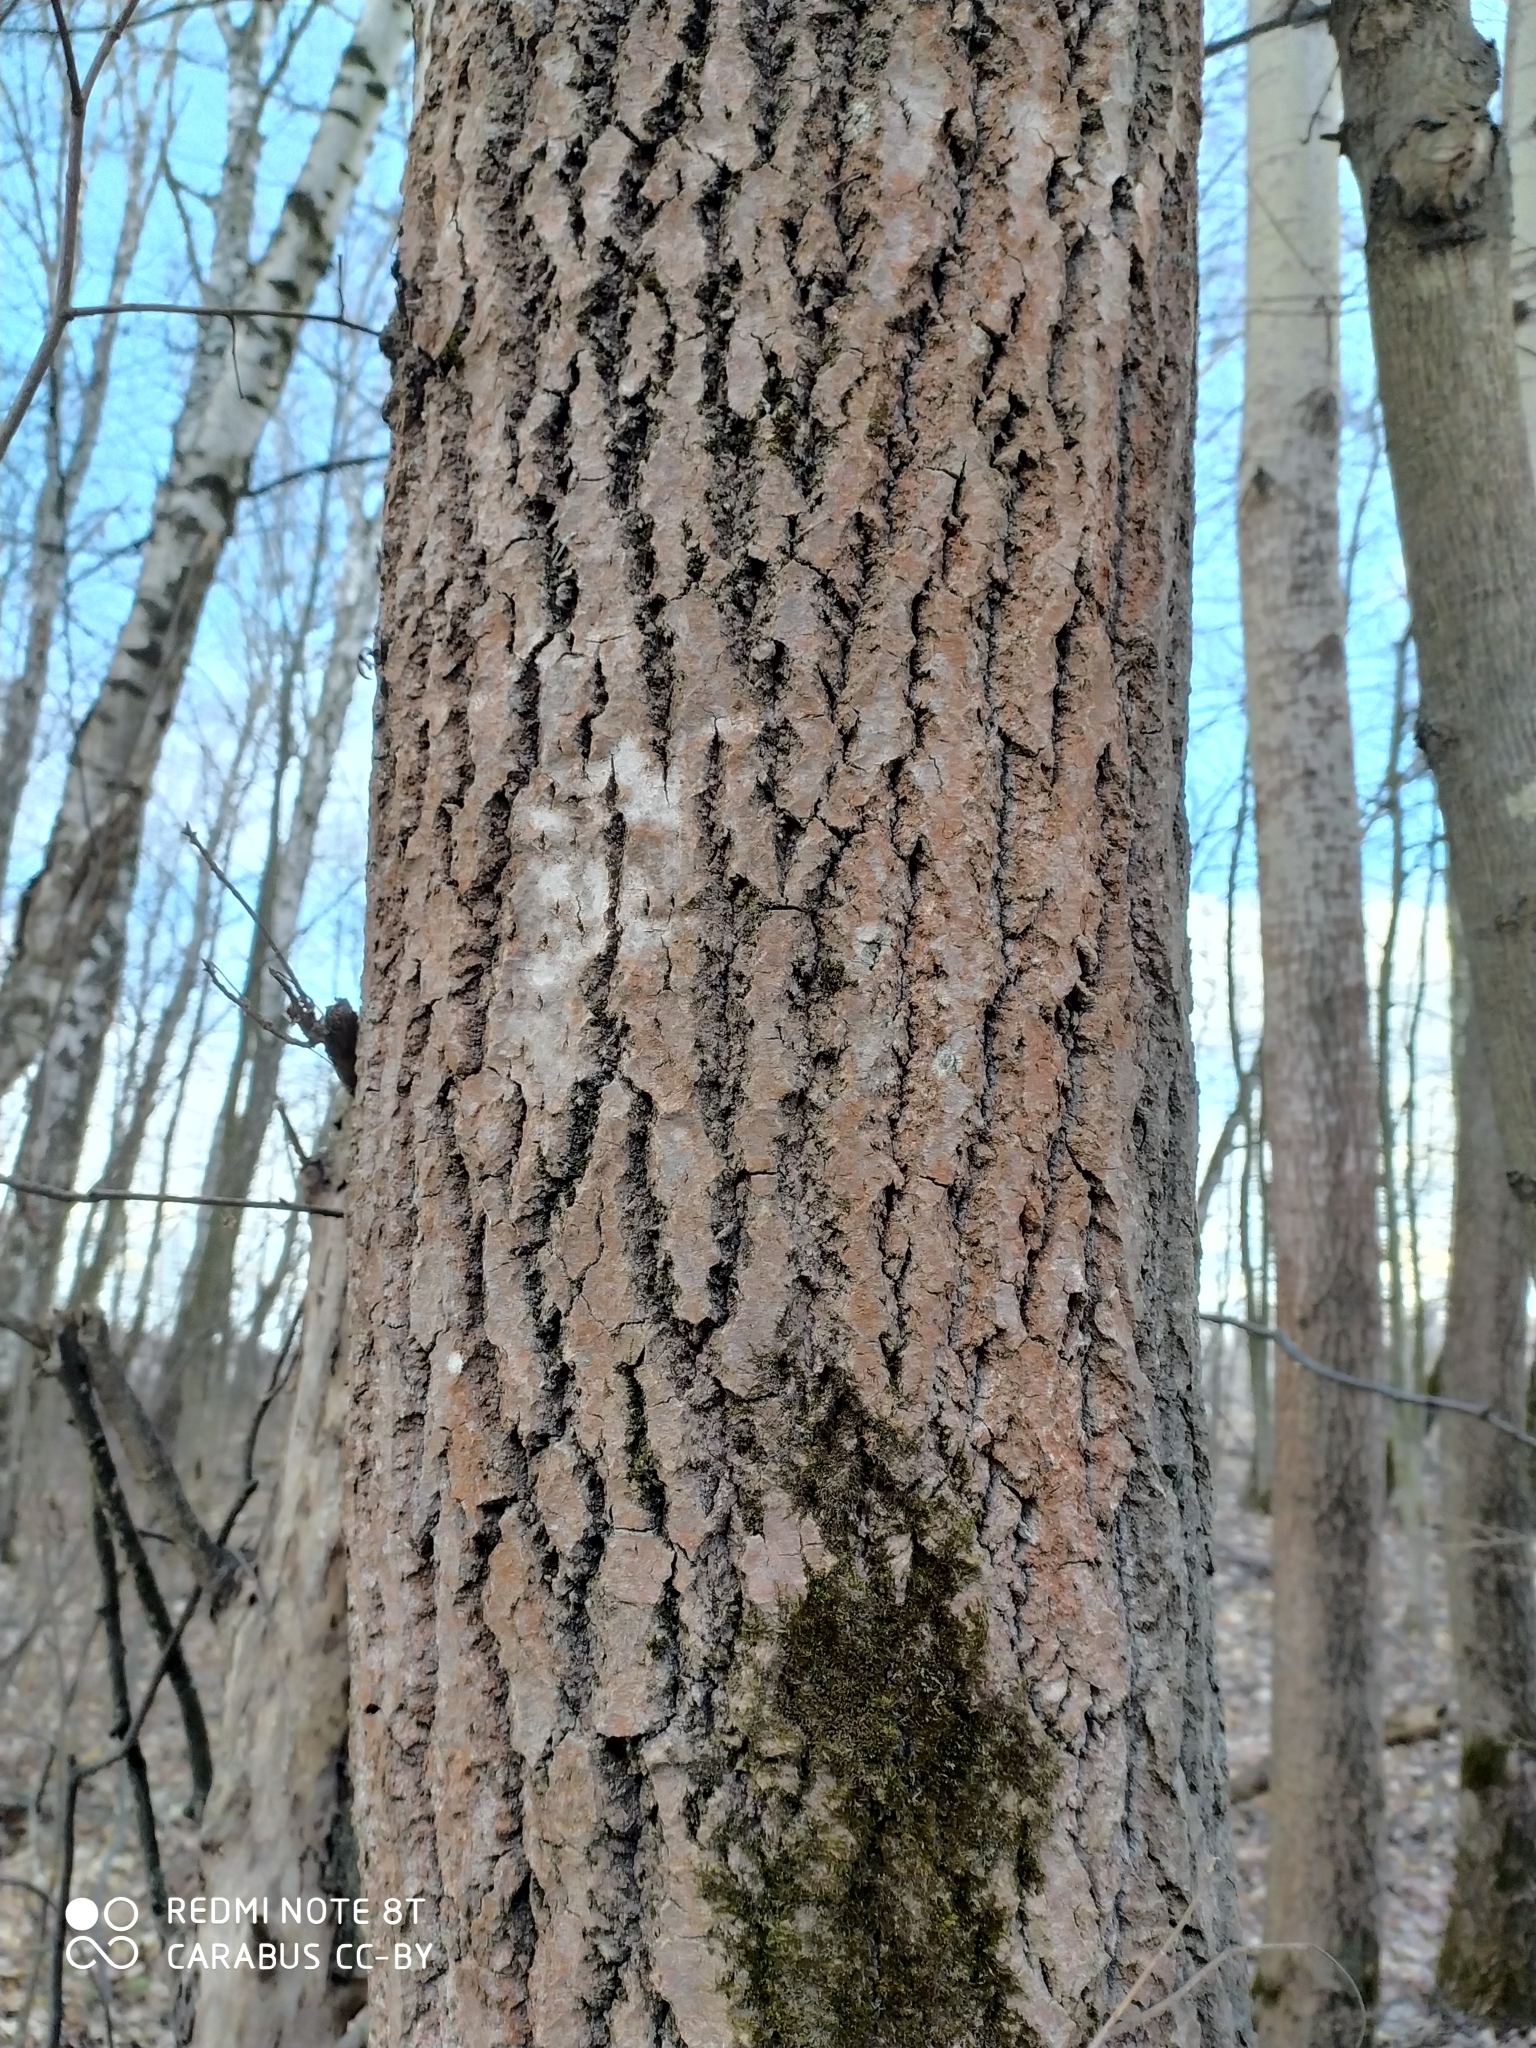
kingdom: Plantae
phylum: Tracheophyta
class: Magnoliopsida
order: Malpighiales
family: Salicaceae
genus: Populus
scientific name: Populus tremula
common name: European aspen
